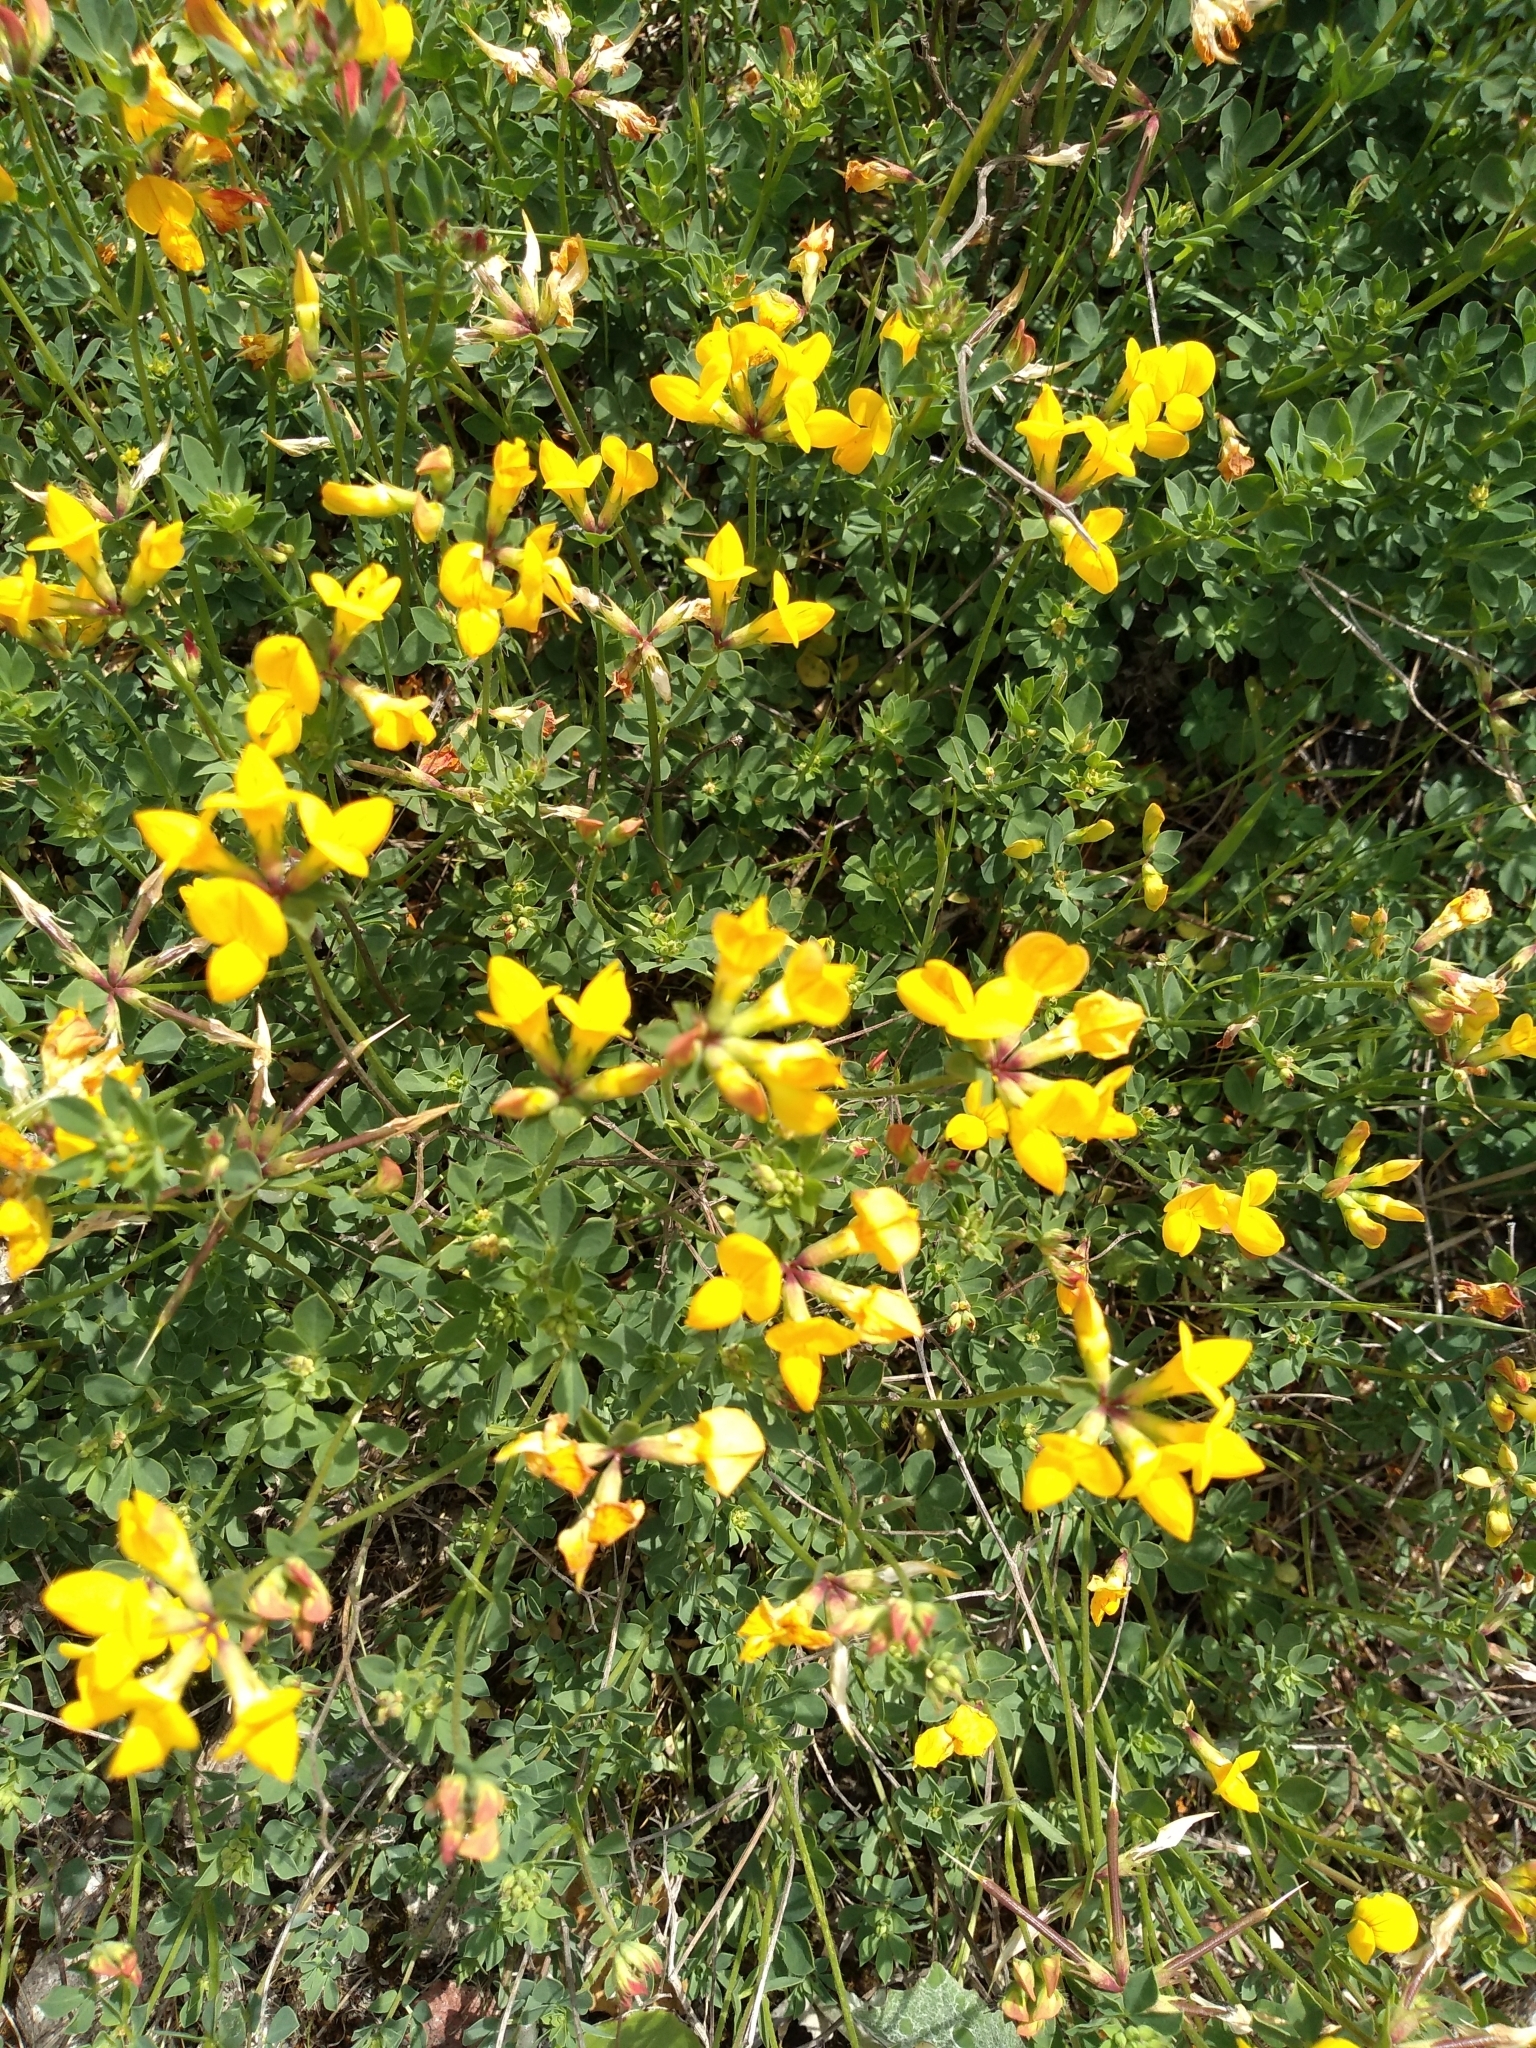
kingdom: Plantae
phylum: Tracheophyta
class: Magnoliopsida
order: Fabales
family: Fabaceae
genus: Lotus
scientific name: Lotus corniculatus
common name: Common bird's-foot-trefoil
